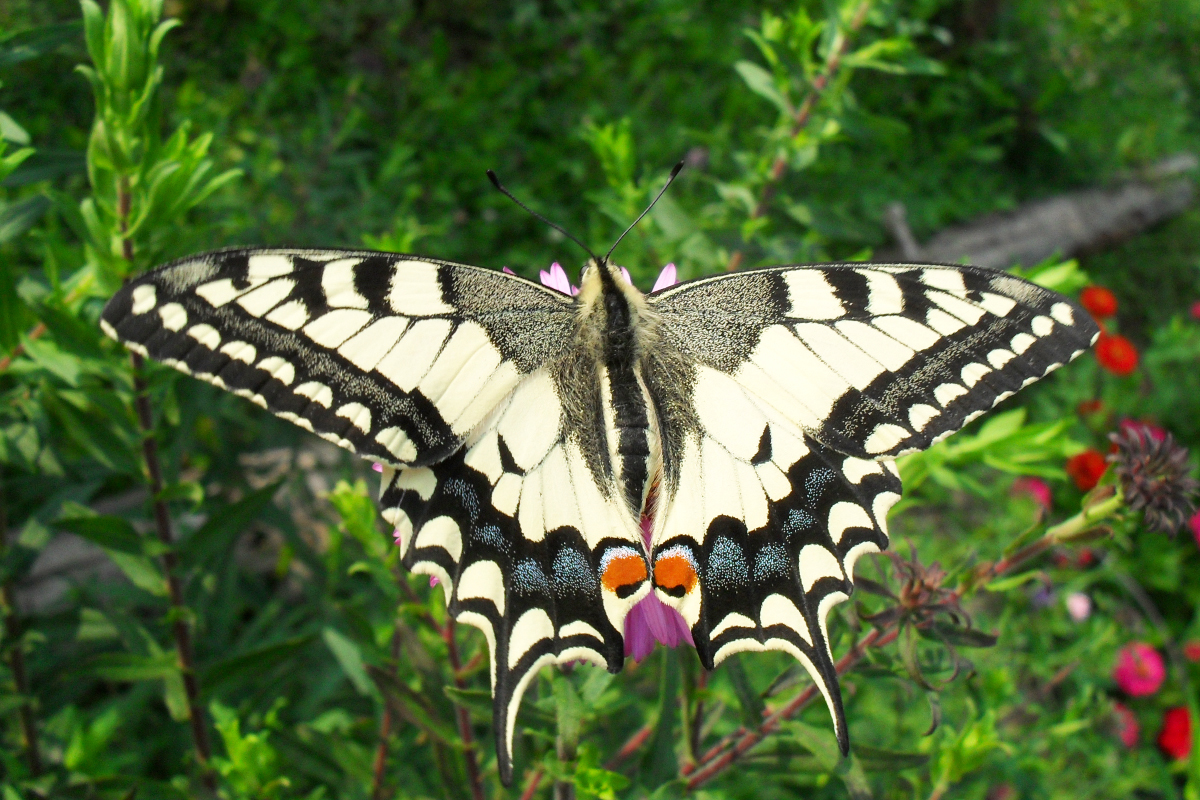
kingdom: Animalia
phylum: Arthropoda
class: Insecta
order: Lepidoptera
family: Papilionidae
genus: Papilio
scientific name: Papilio machaon
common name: Swallowtail
